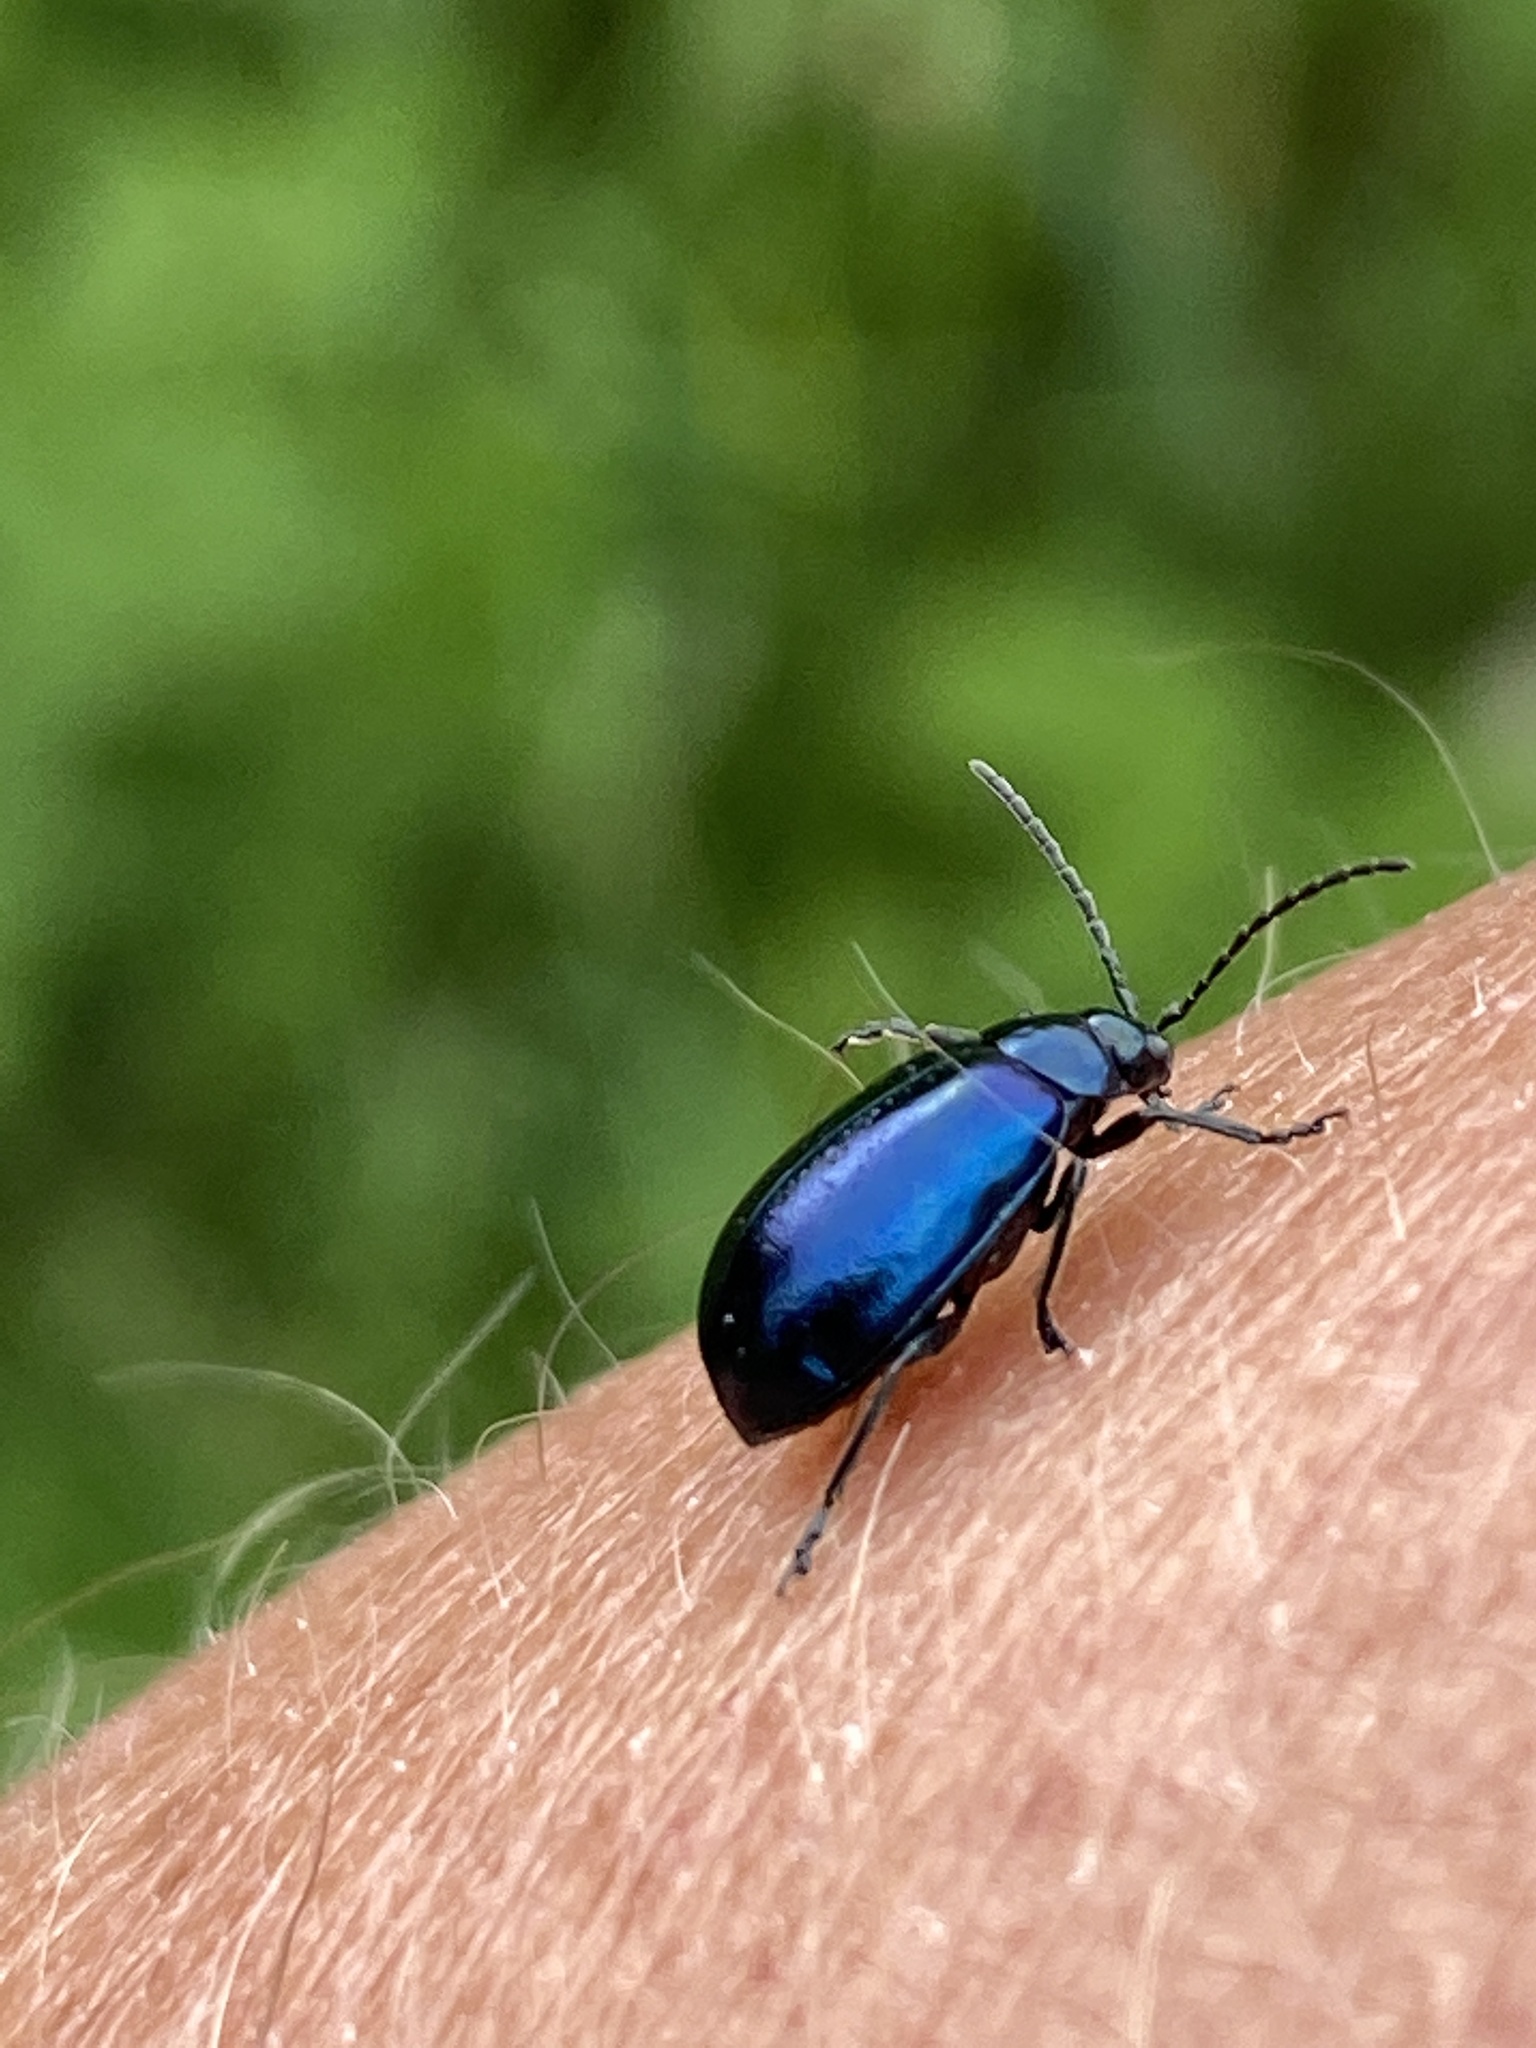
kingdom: Animalia
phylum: Arthropoda
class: Insecta
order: Coleoptera
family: Chrysomelidae
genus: Agelastica
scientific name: Agelastica alni
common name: Alder leaf beetle
